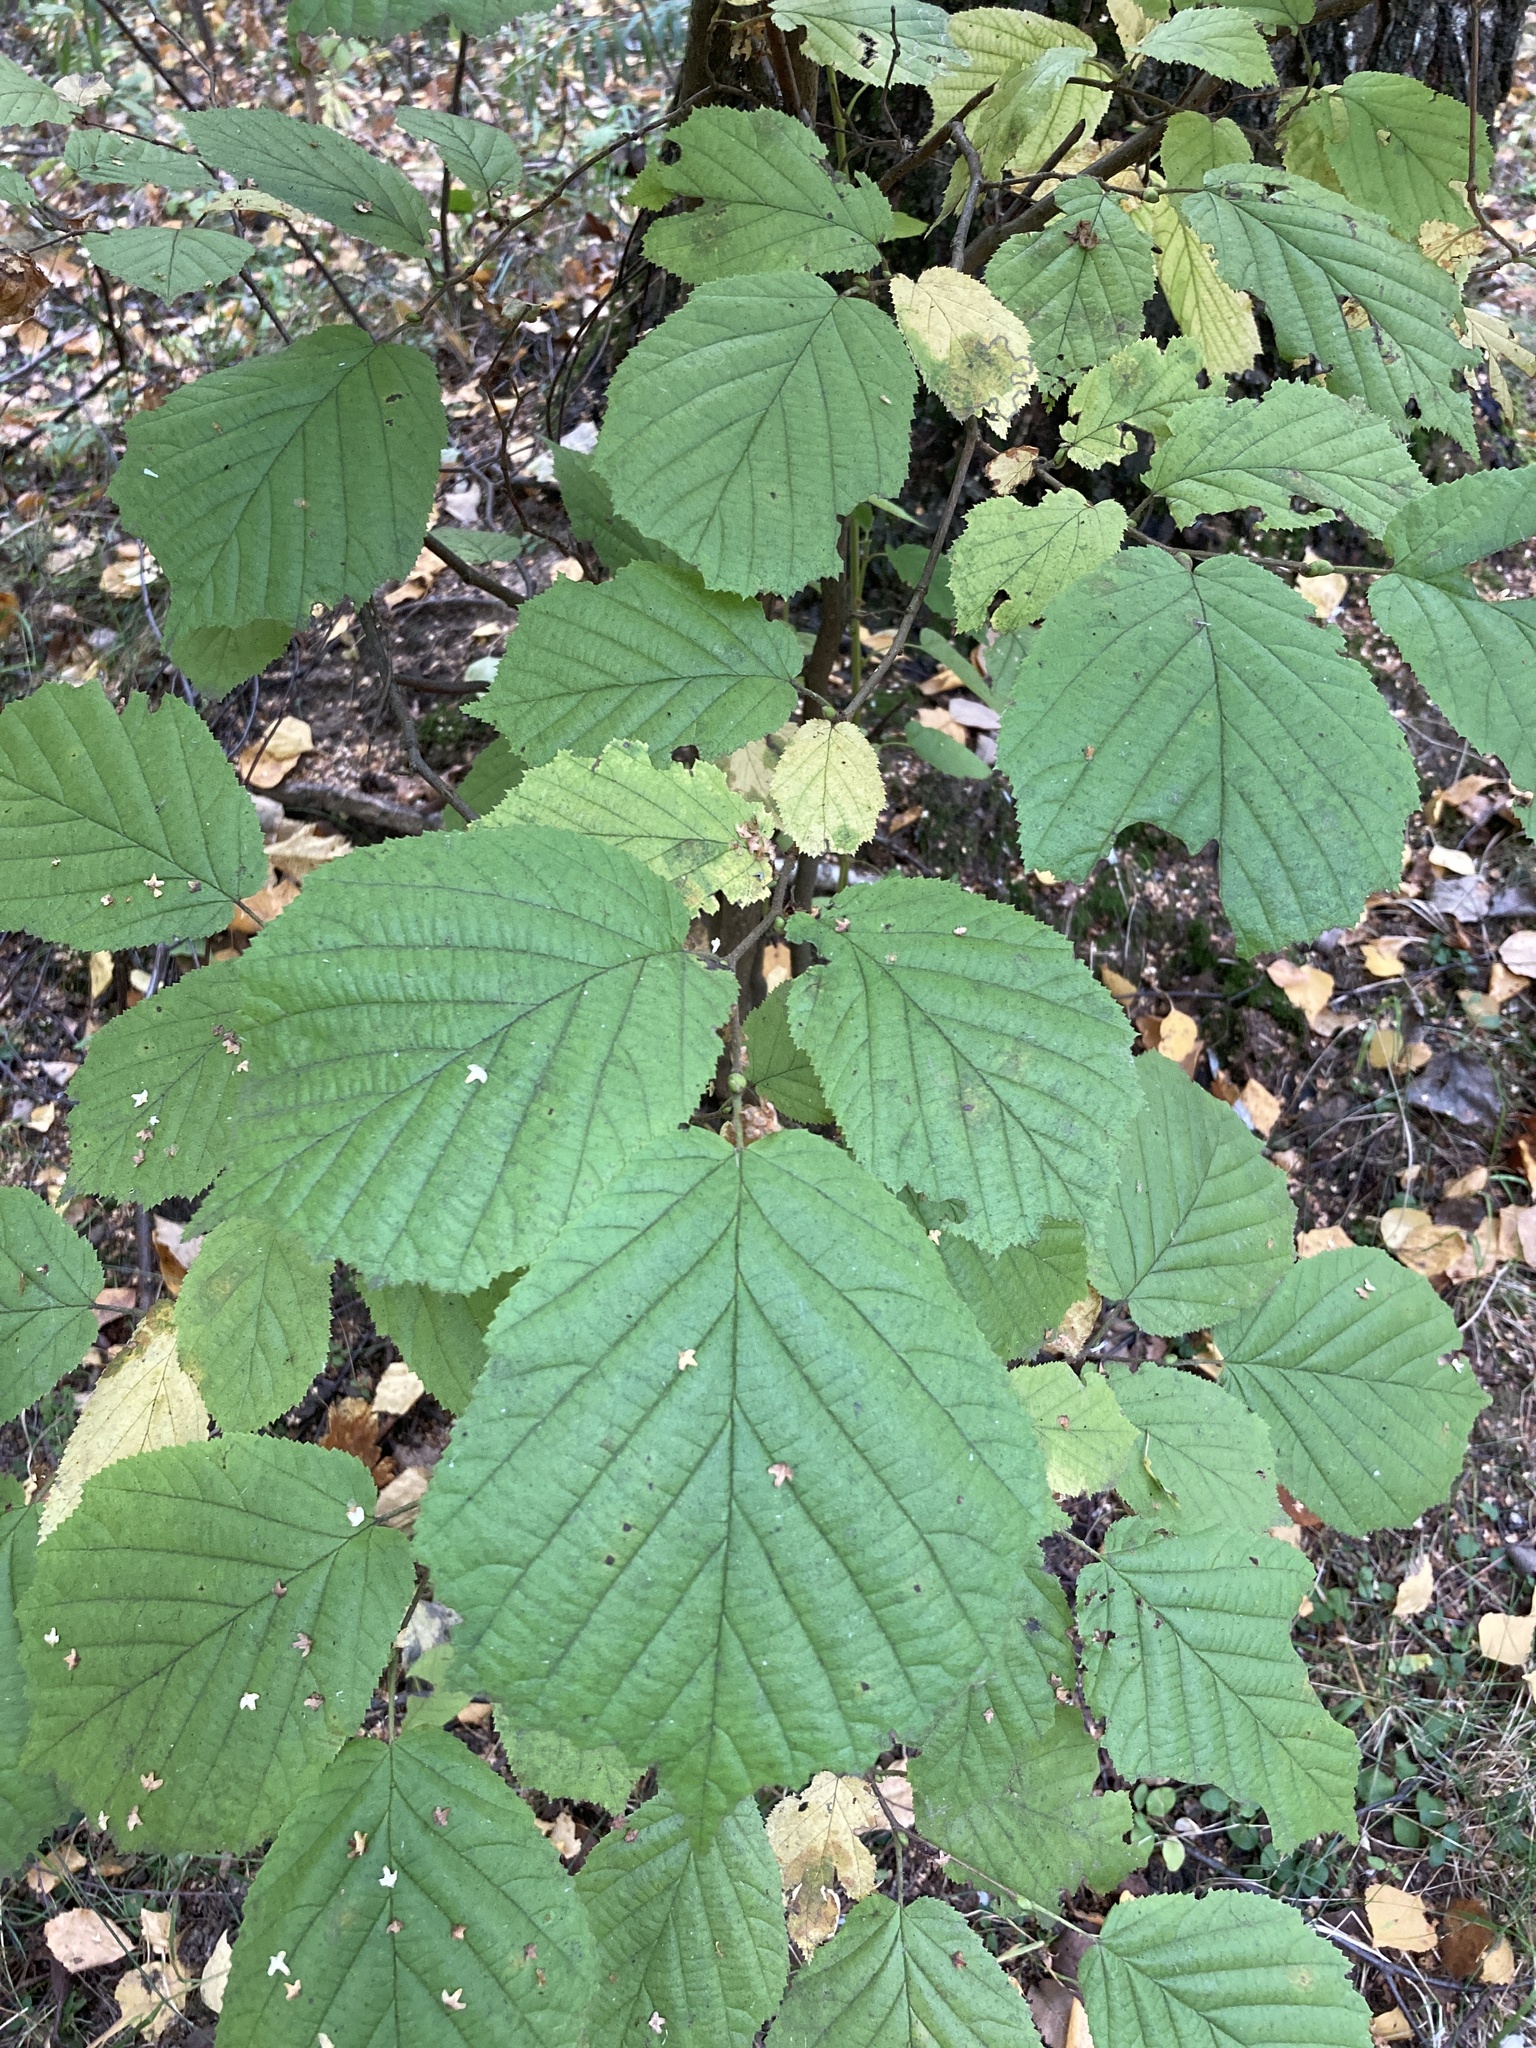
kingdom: Plantae
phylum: Tracheophyta
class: Magnoliopsida
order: Fagales
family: Betulaceae
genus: Corylus
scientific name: Corylus avellana
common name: European hazel
